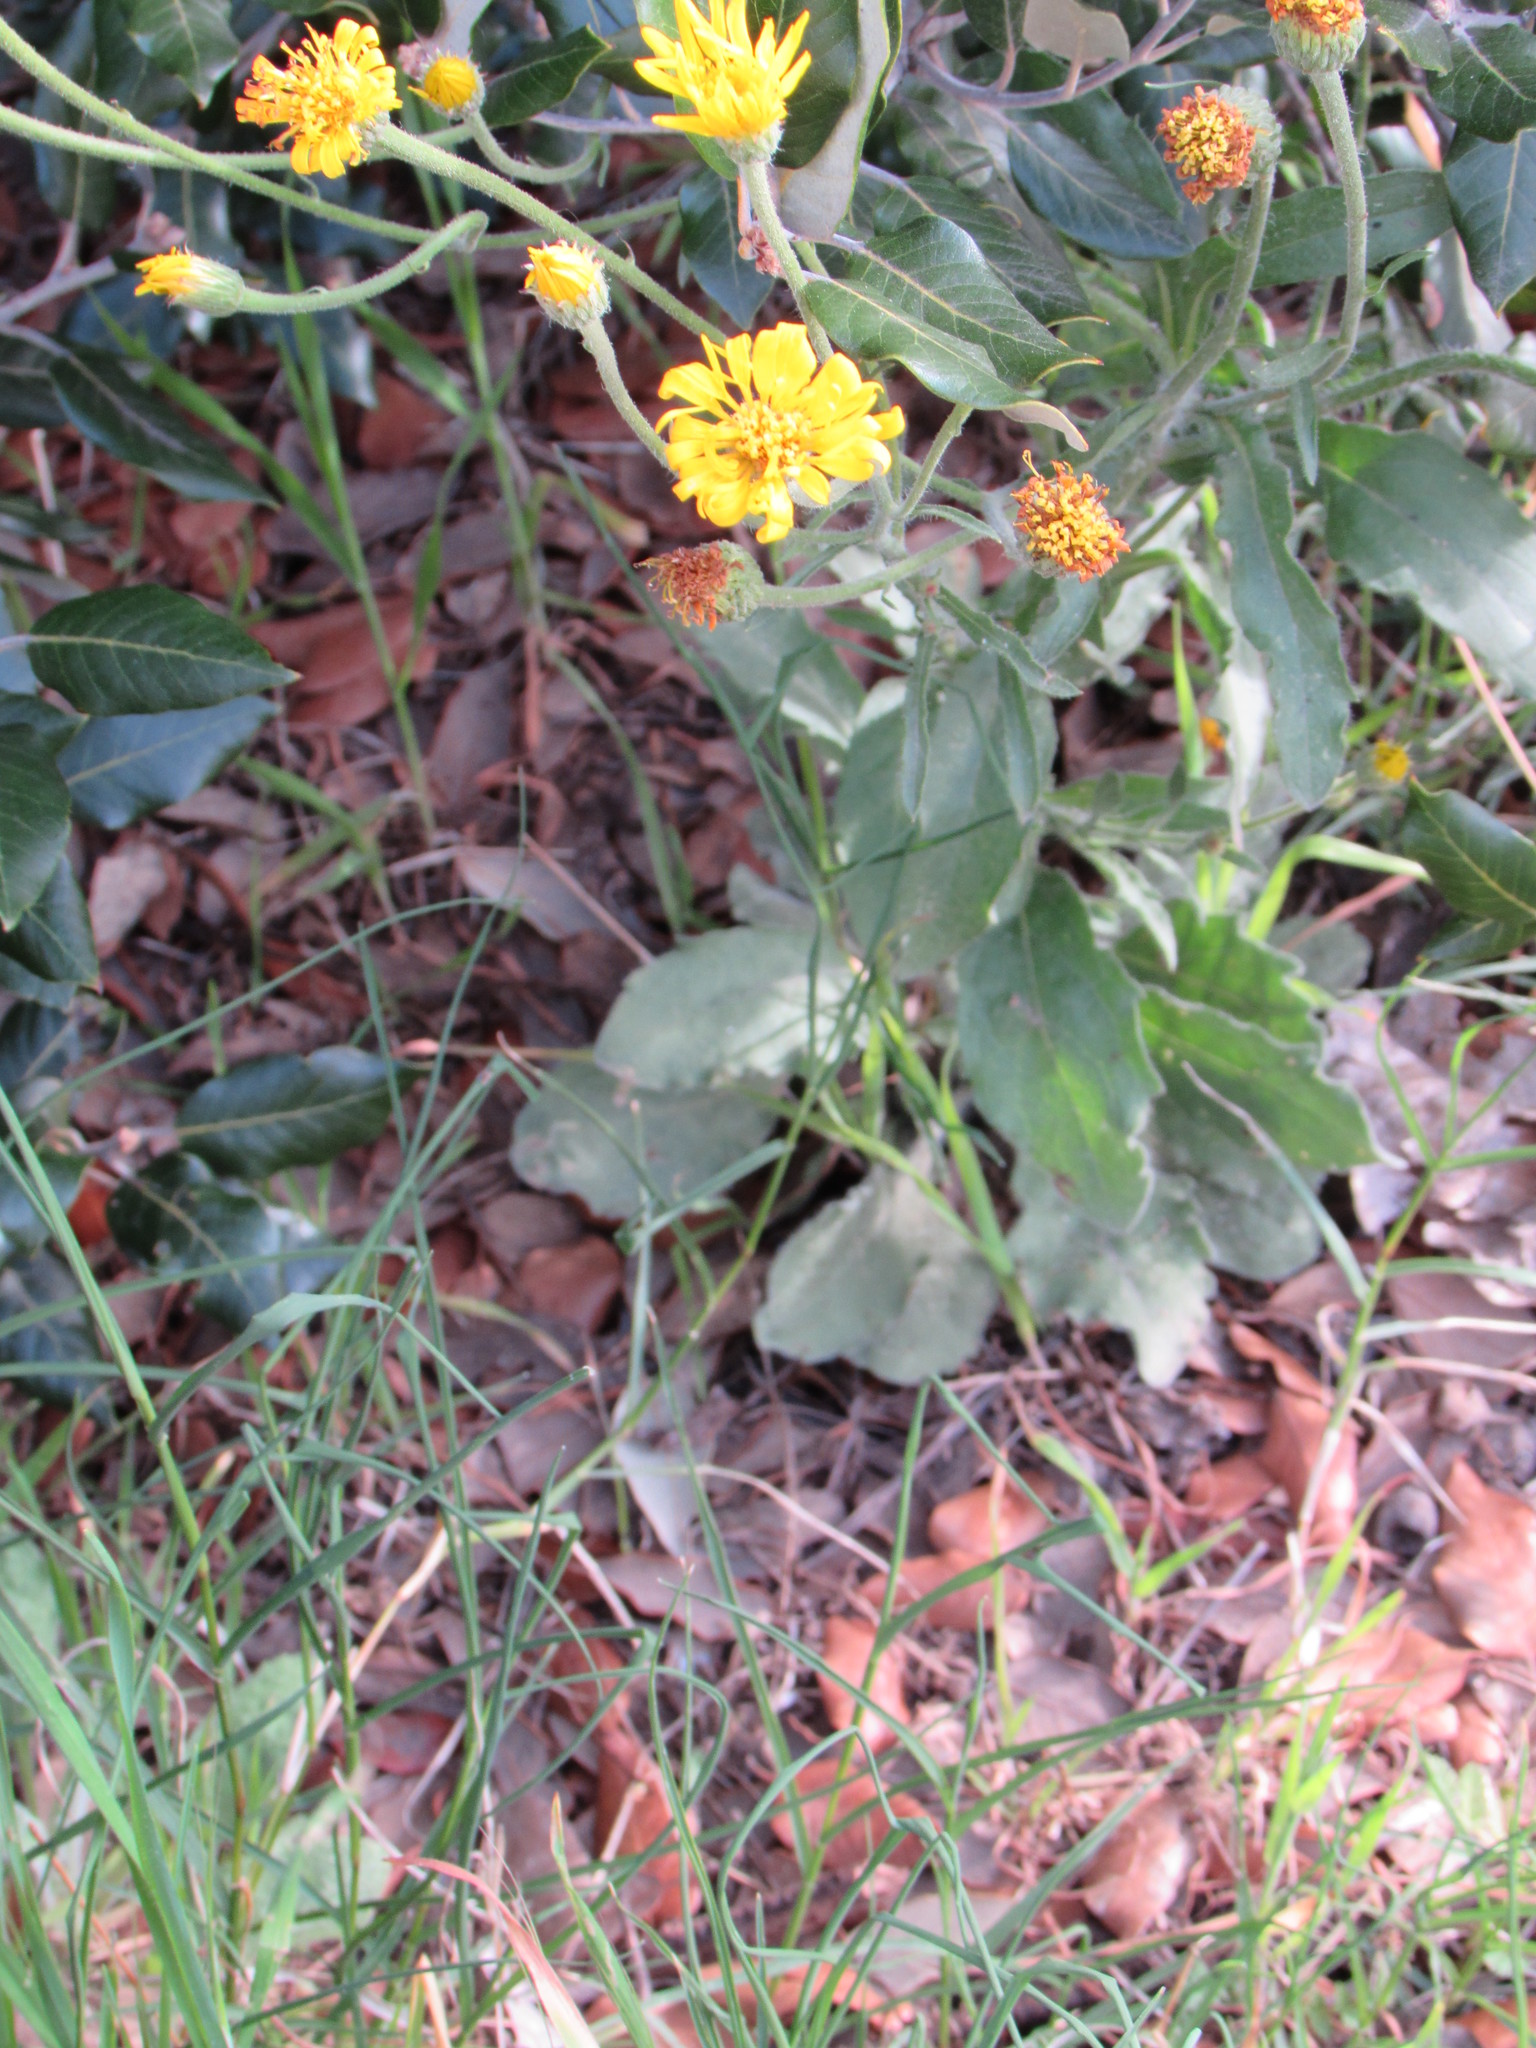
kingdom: Plantae
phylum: Tracheophyta
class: Magnoliopsida
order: Asterales
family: Asteraceae
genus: Heterotheca
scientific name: Heterotheca grandiflora
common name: Telegraphweed
